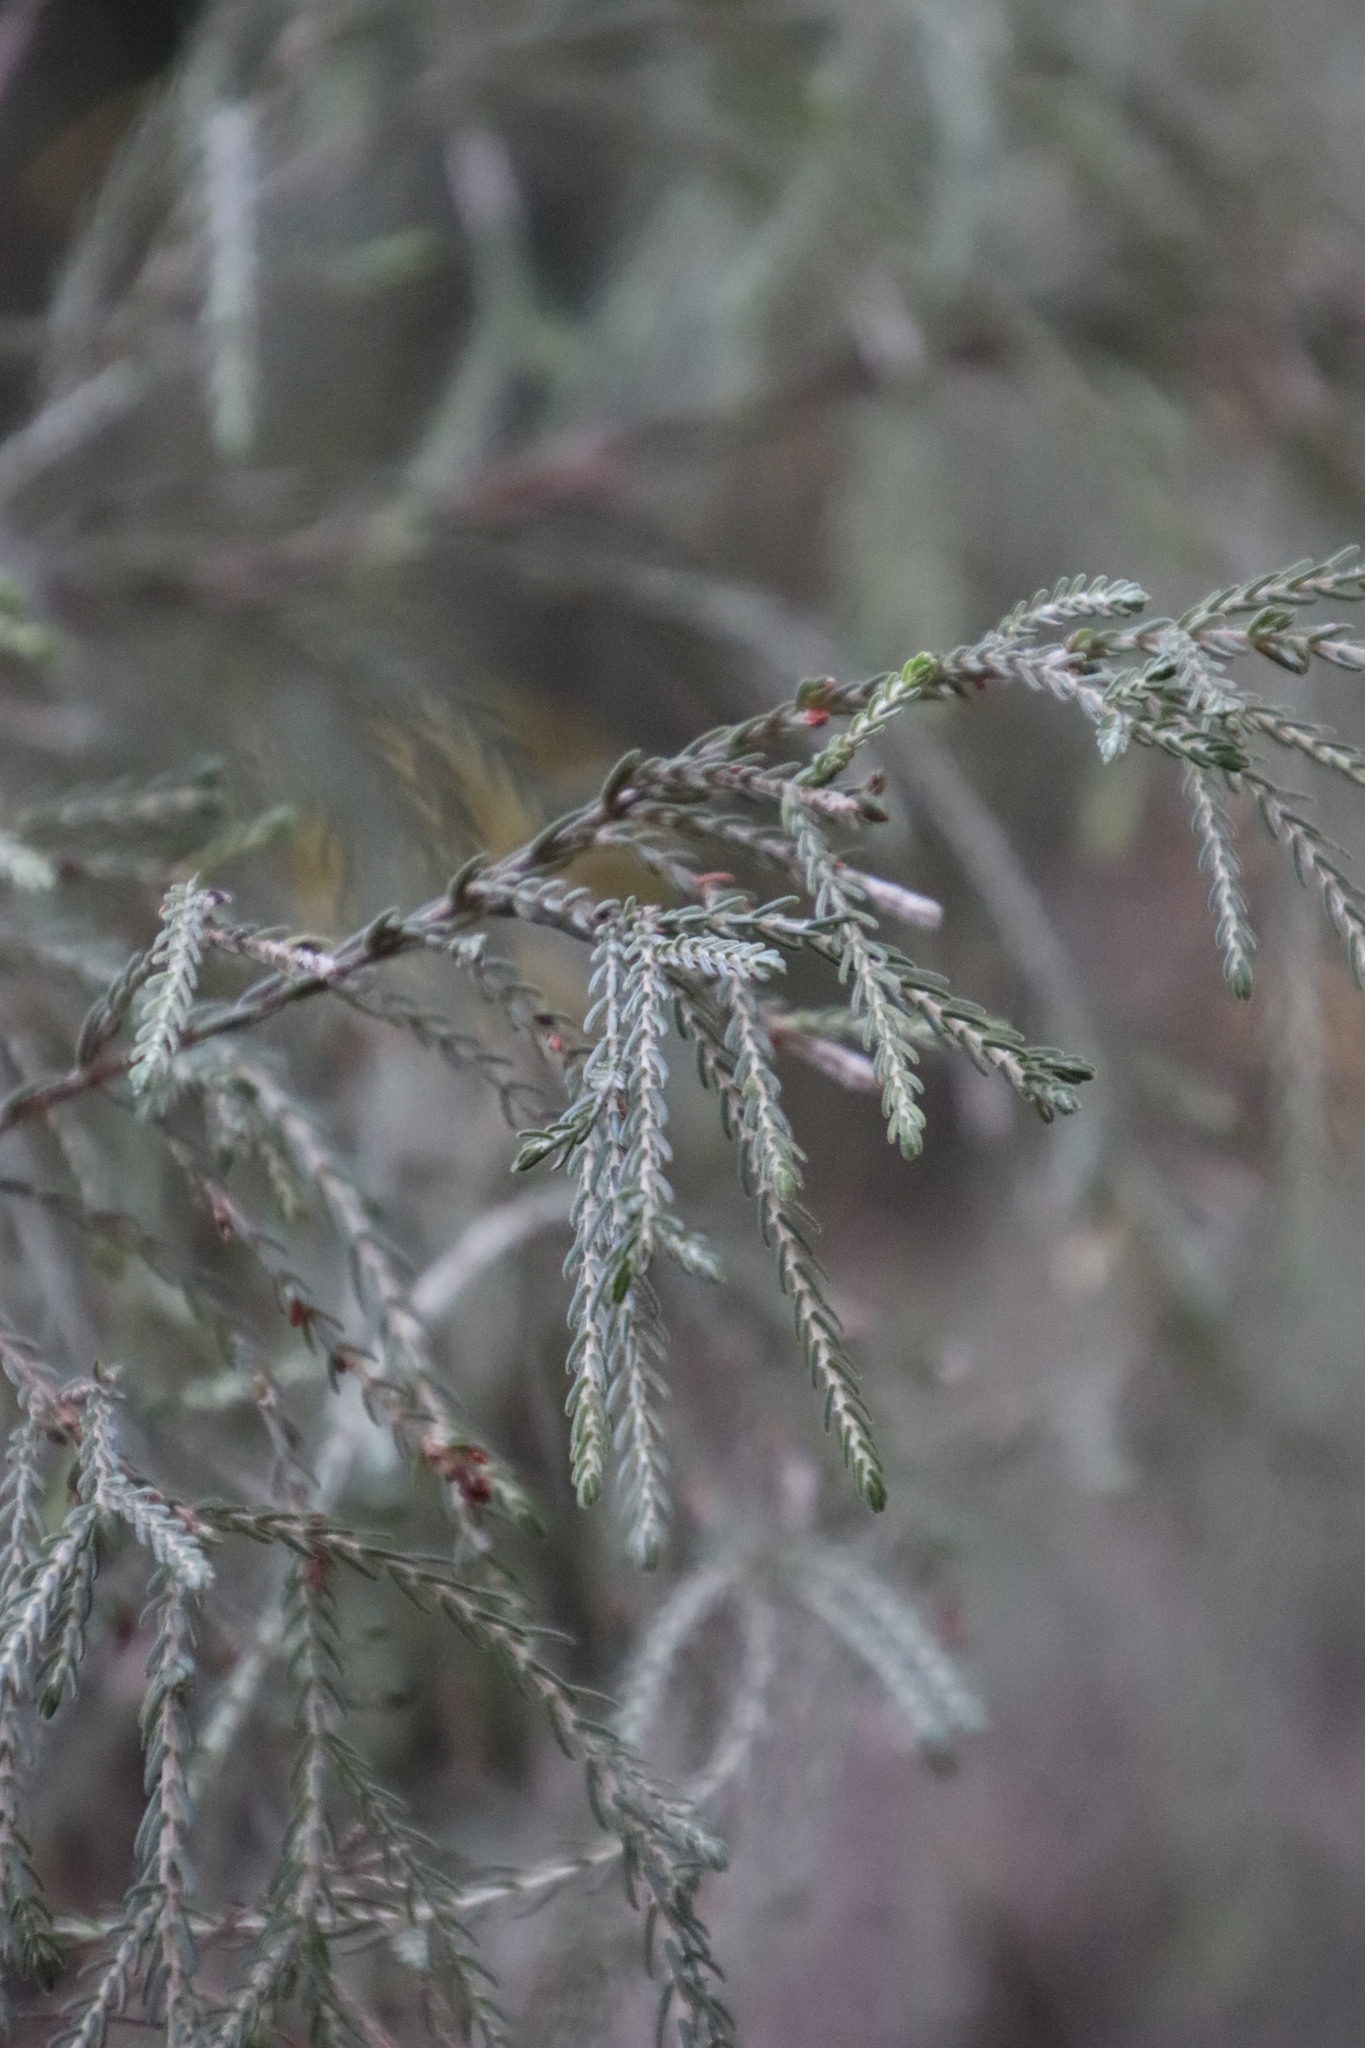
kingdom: Plantae
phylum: Tracheophyta
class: Magnoliopsida
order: Malvales
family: Thymelaeaceae
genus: Passerina
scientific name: Passerina corymbosa
